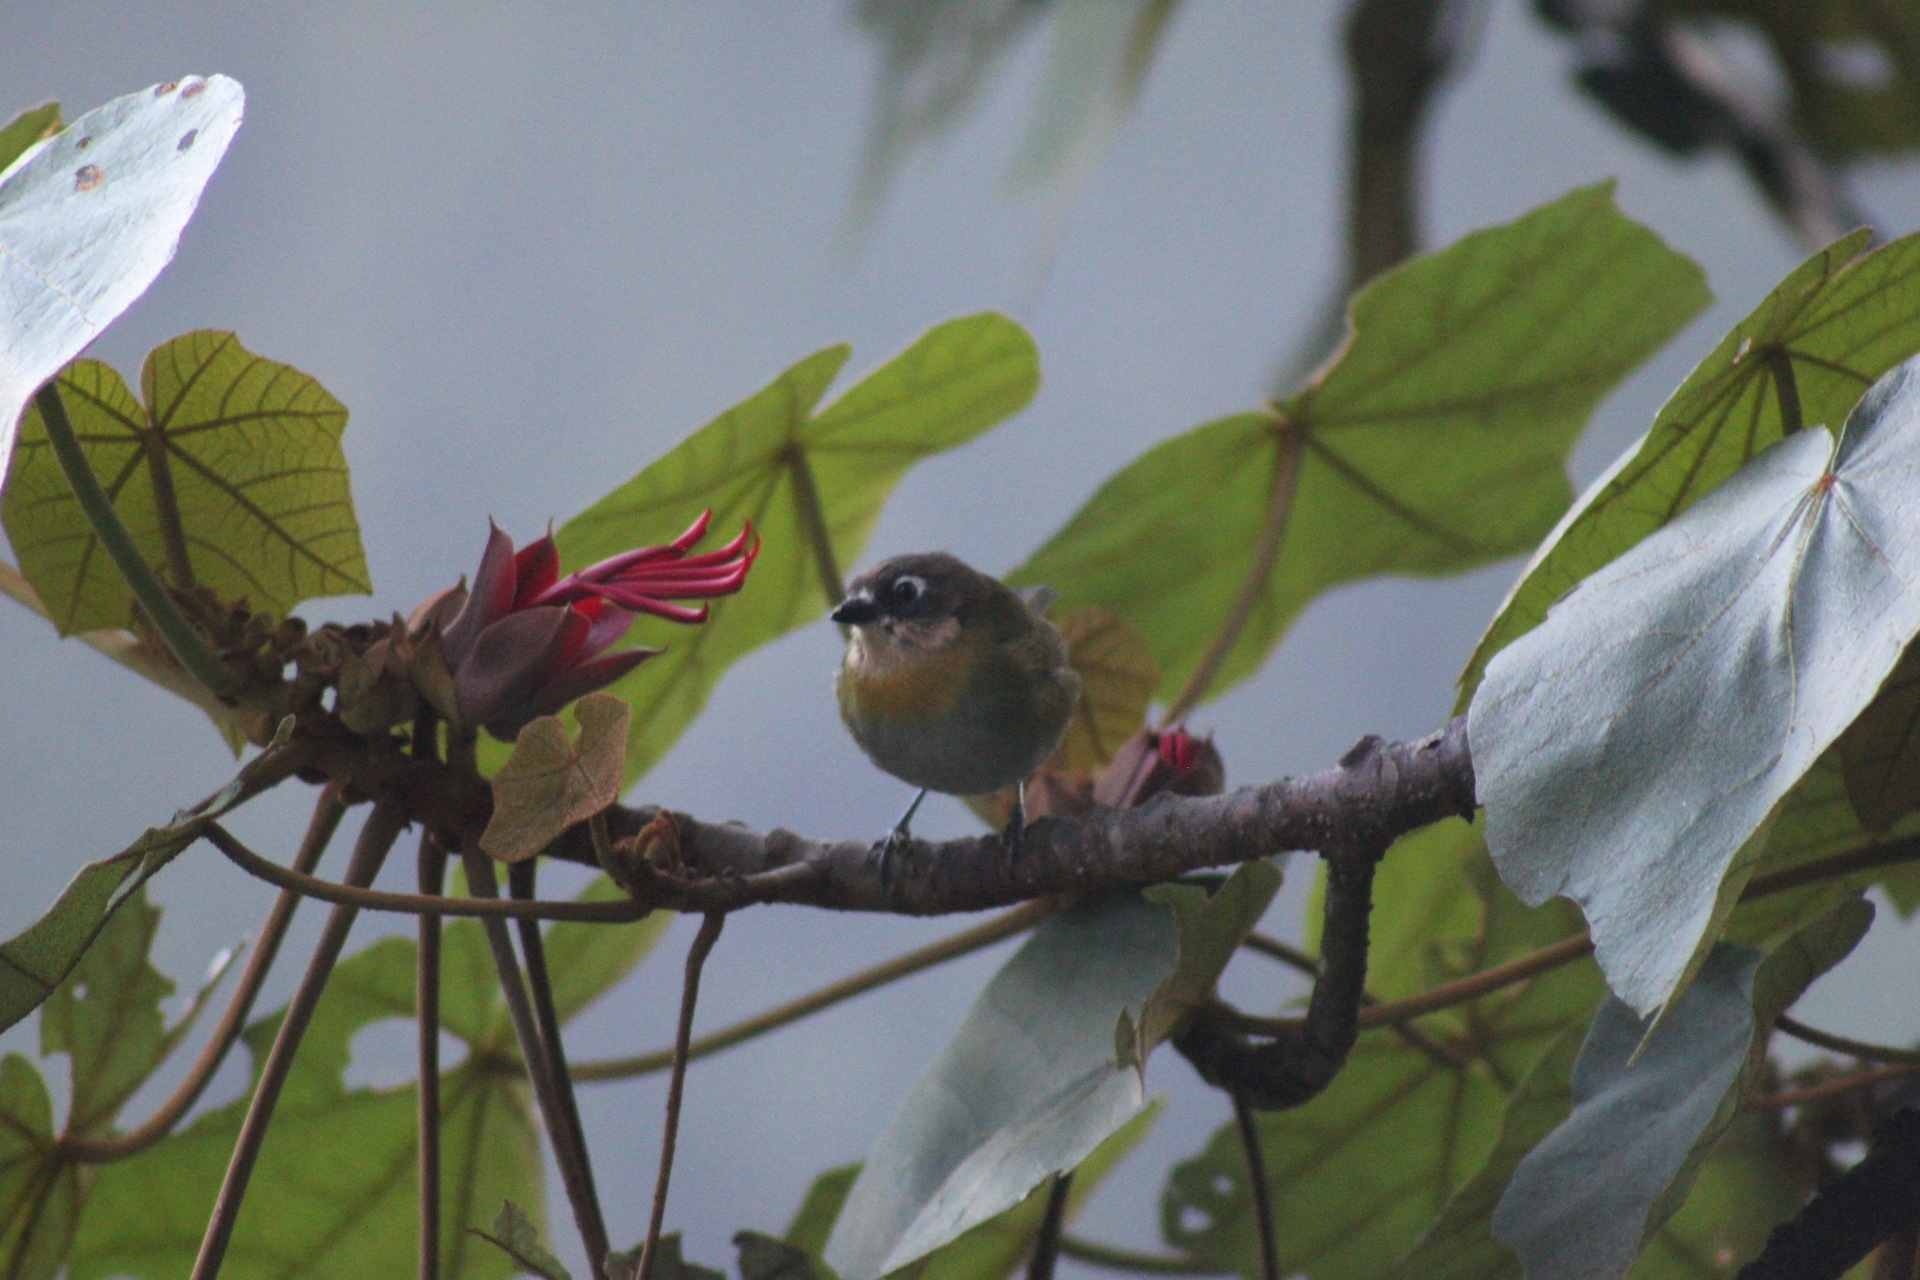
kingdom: Animalia
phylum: Chordata
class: Aves
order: Passeriformes
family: Passerellidae
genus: Chlorospingus
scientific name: Chlorospingus flavopectus
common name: Common chlorospingus
